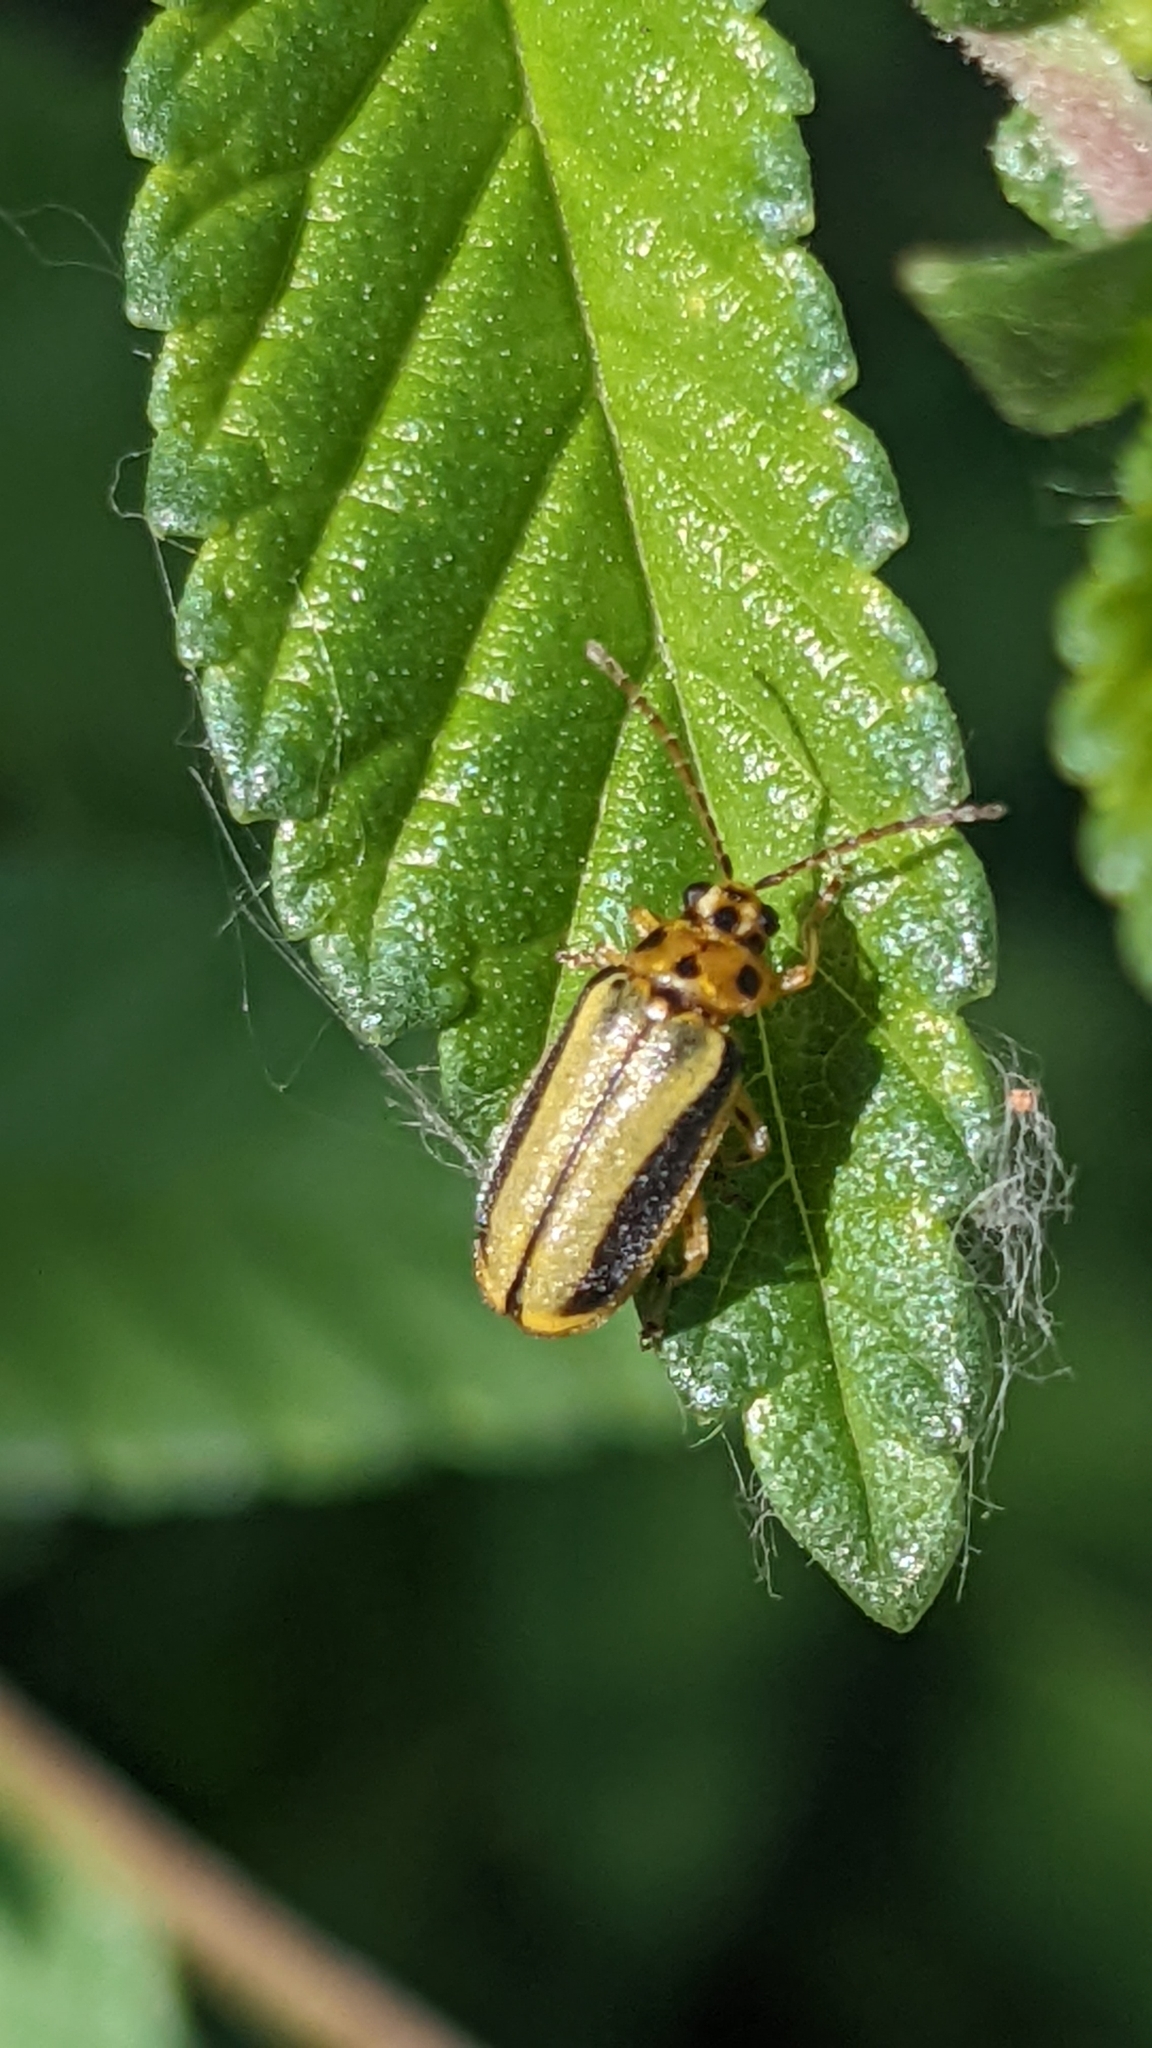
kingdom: Animalia
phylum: Arthropoda
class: Insecta
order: Coleoptera
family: Chrysomelidae
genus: Xanthogaleruca
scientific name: Xanthogaleruca luteola
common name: Elm leaf beetle
